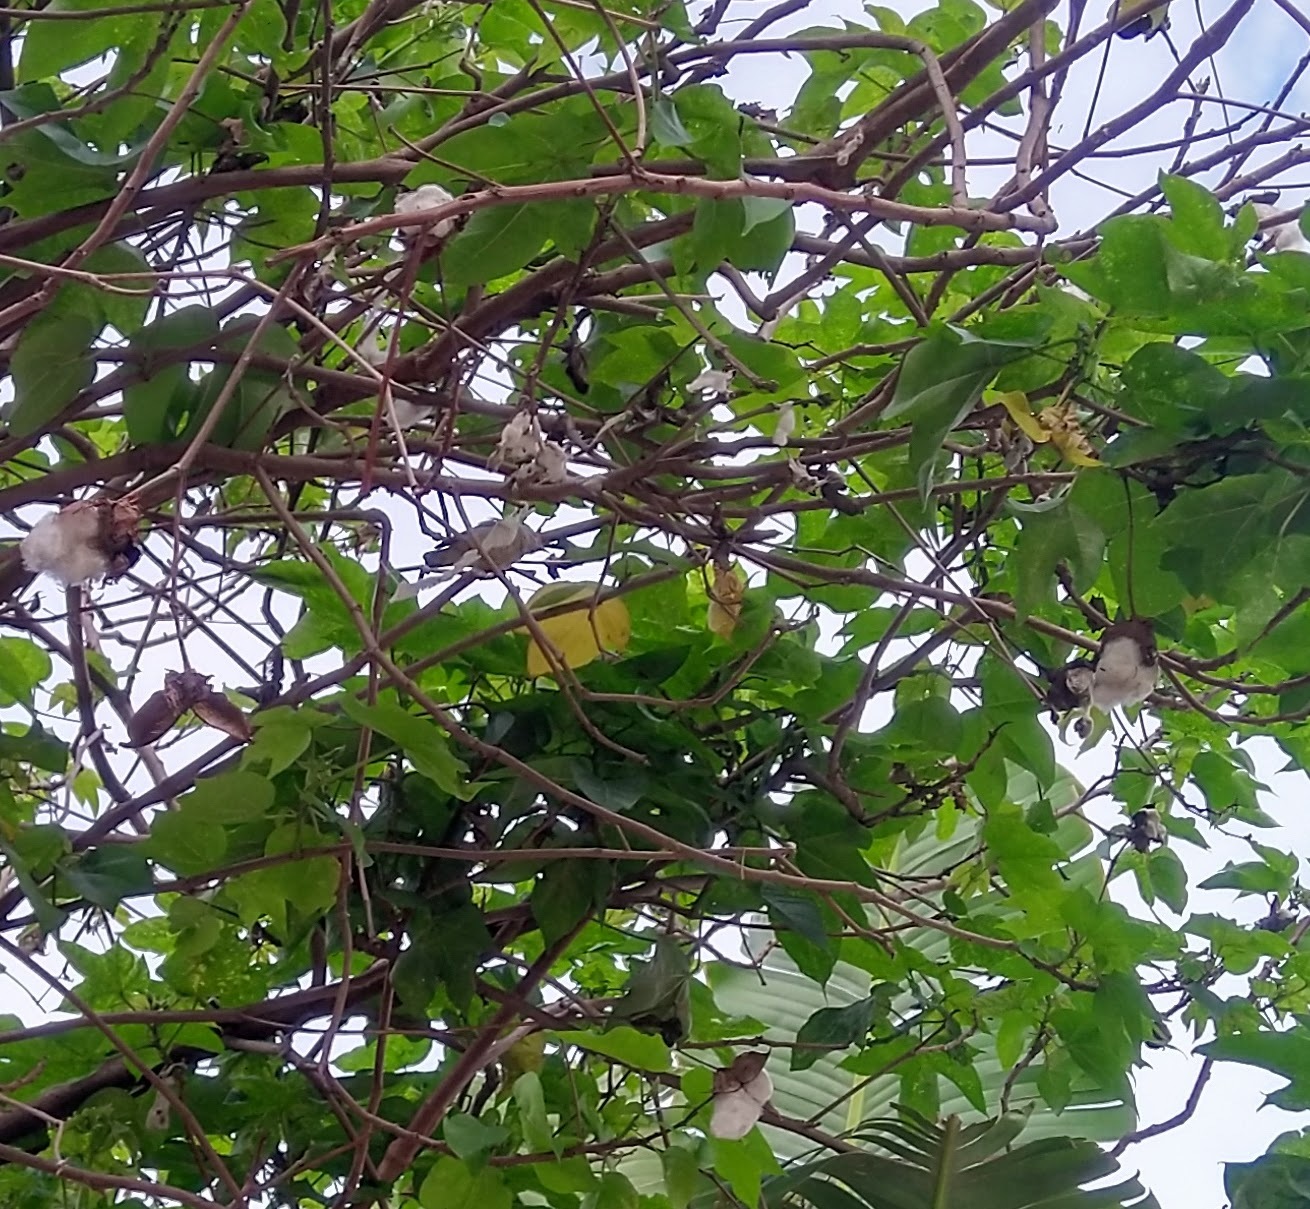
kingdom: Animalia
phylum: Chordata
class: Aves
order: Passeriformes
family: Dicaeidae
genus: Dicaeum
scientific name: Dicaeum erythrorhynchos
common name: Pale-billed flowerpecker
